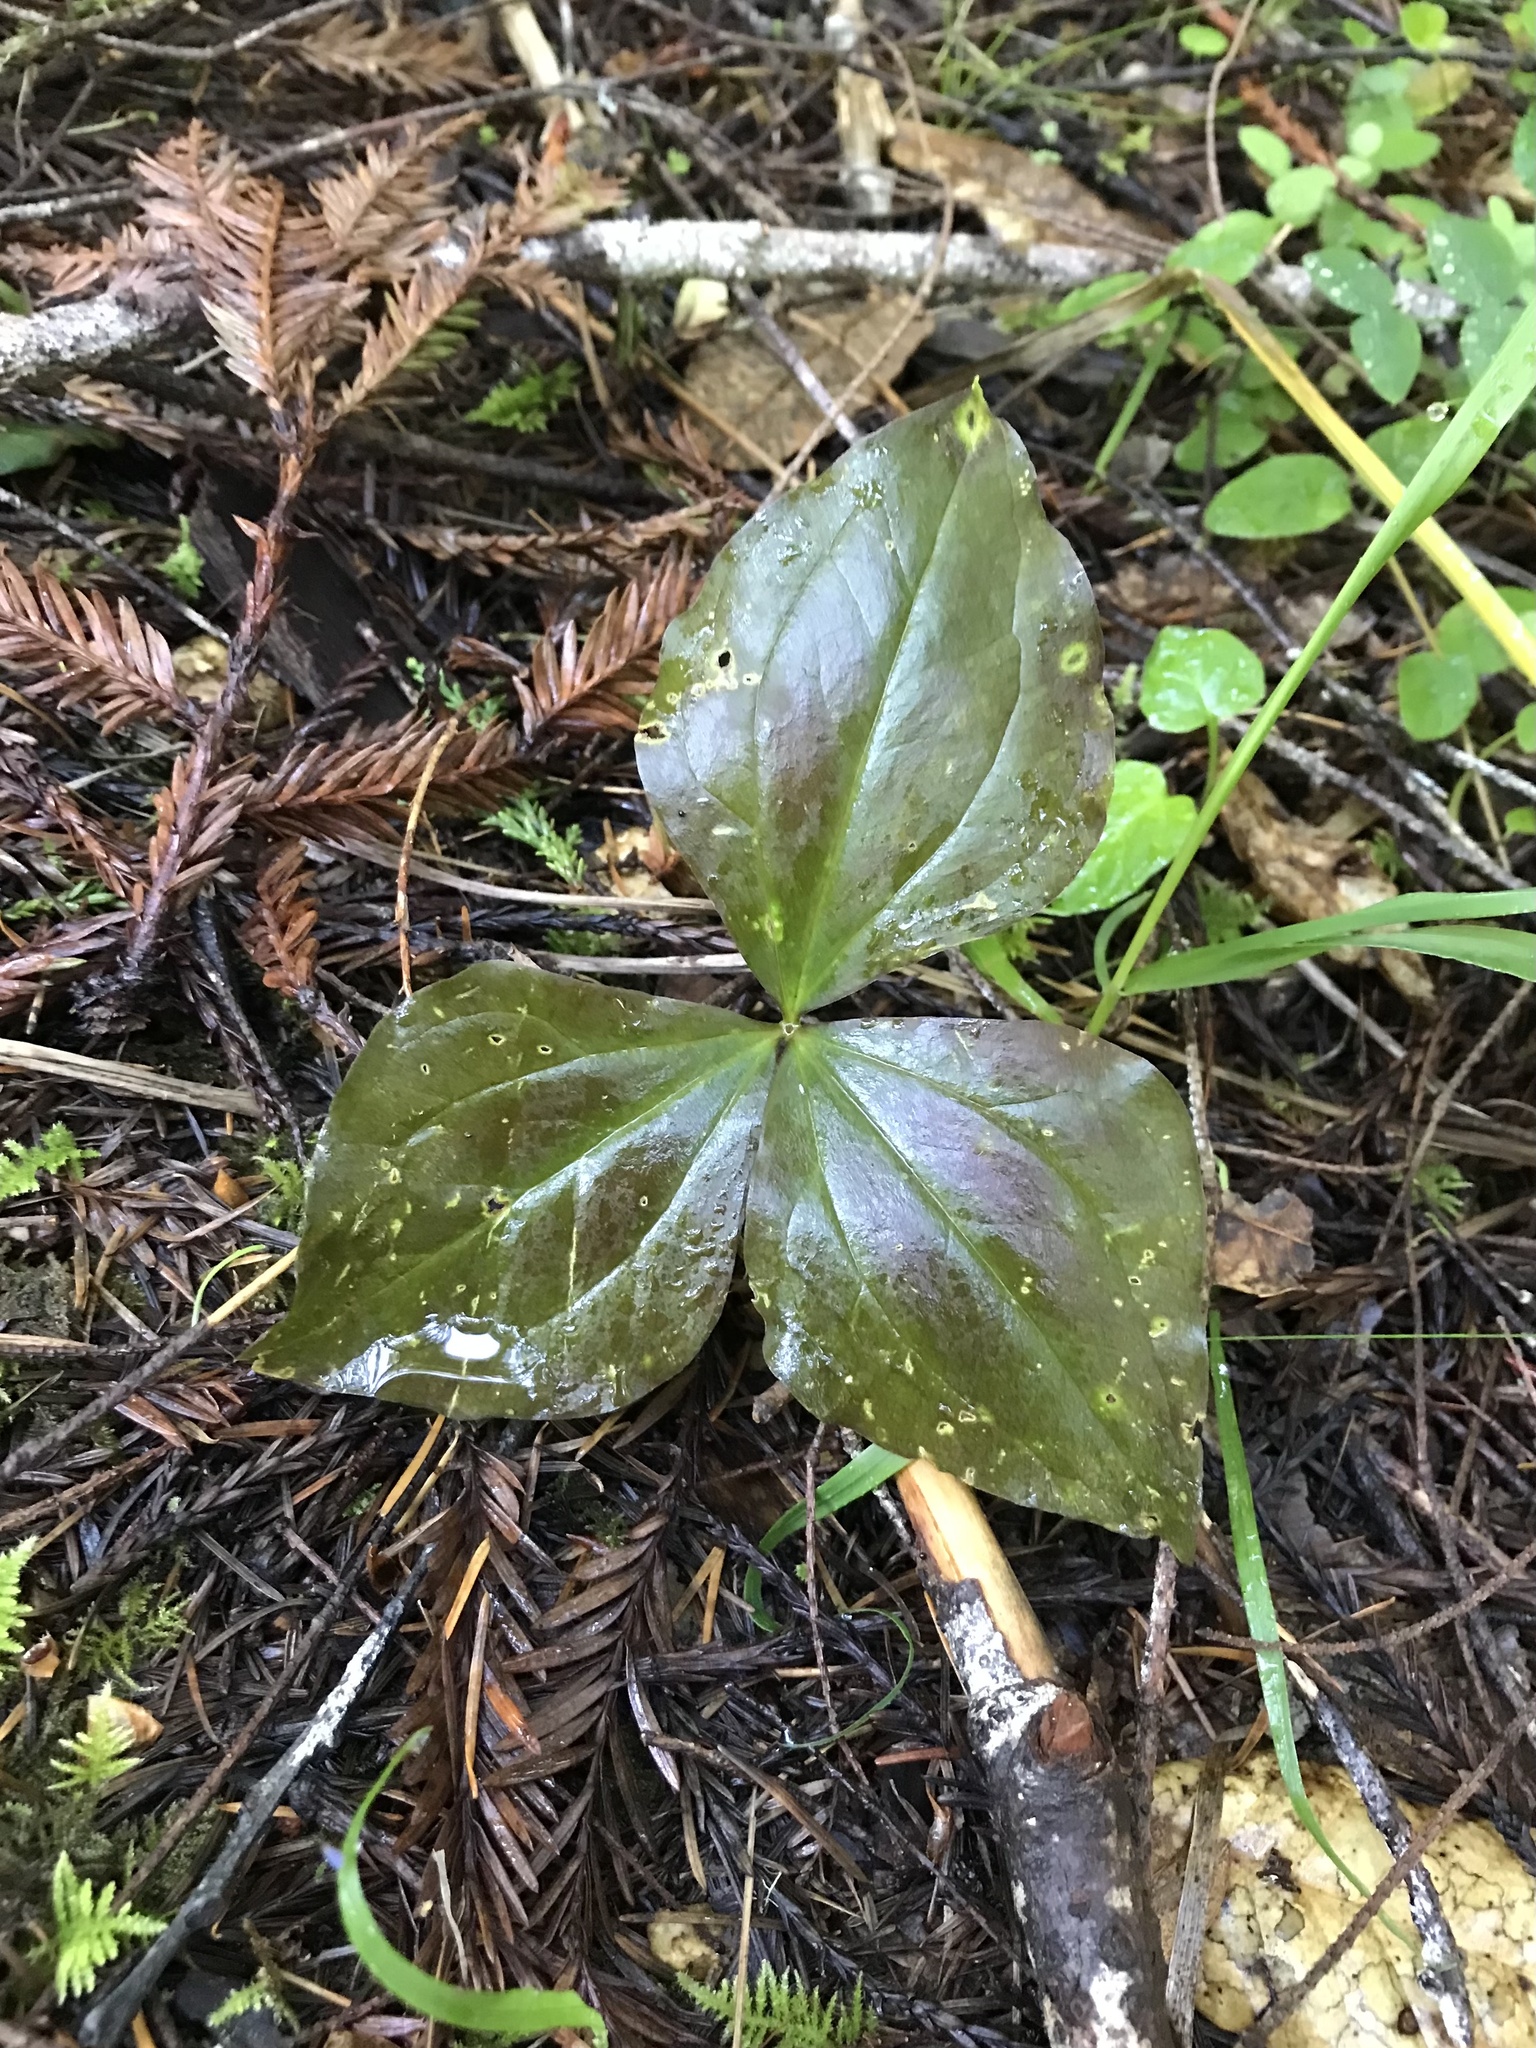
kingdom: Plantae
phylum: Tracheophyta
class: Liliopsida
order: Liliales
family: Melanthiaceae
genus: Trillium
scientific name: Trillium ovatum
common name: Pacific trillium
